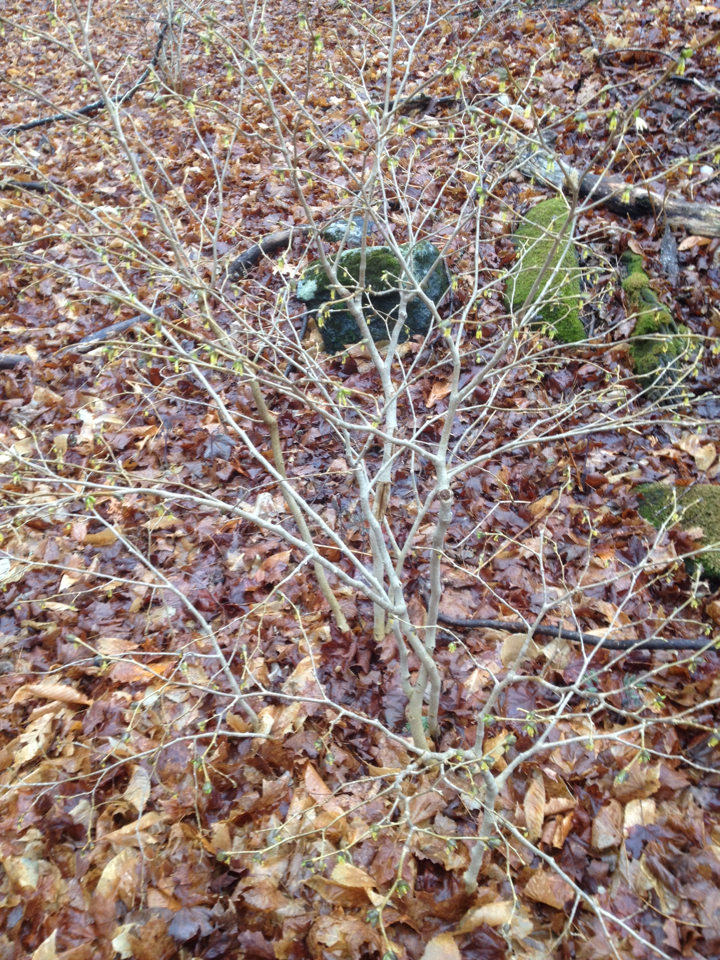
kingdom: Plantae
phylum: Tracheophyta
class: Magnoliopsida
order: Malvales
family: Thymelaeaceae
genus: Dirca
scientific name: Dirca palustris
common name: Leatherwood
